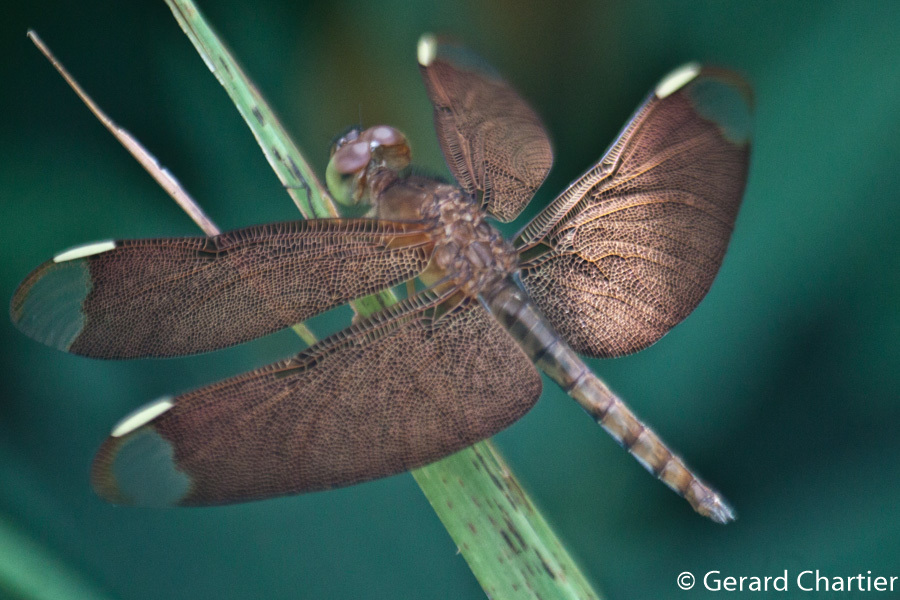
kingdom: Animalia
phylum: Arthropoda
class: Insecta
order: Odonata
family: Libellulidae
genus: Neurothemis
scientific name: Neurothemis fulvia
